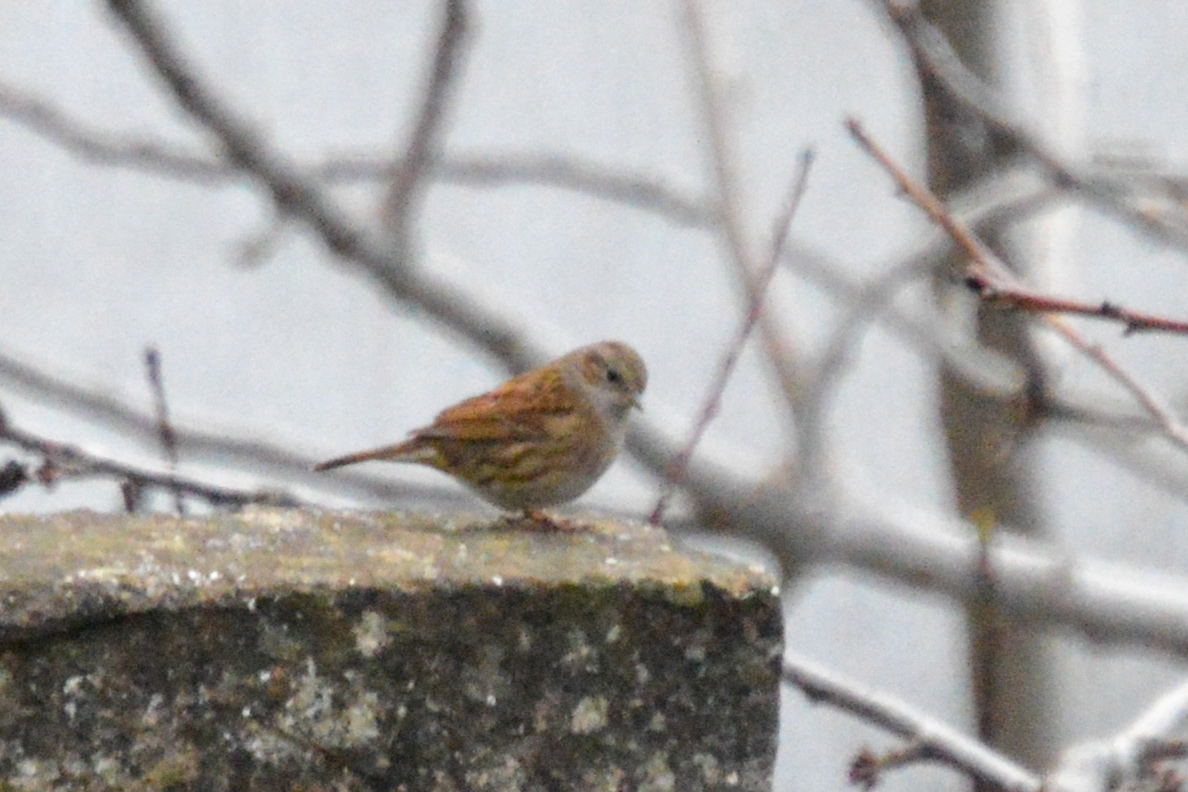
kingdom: Animalia
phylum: Chordata
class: Aves
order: Passeriformes
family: Prunellidae
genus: Prunella
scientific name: Prunella modularis
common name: Dunnock
